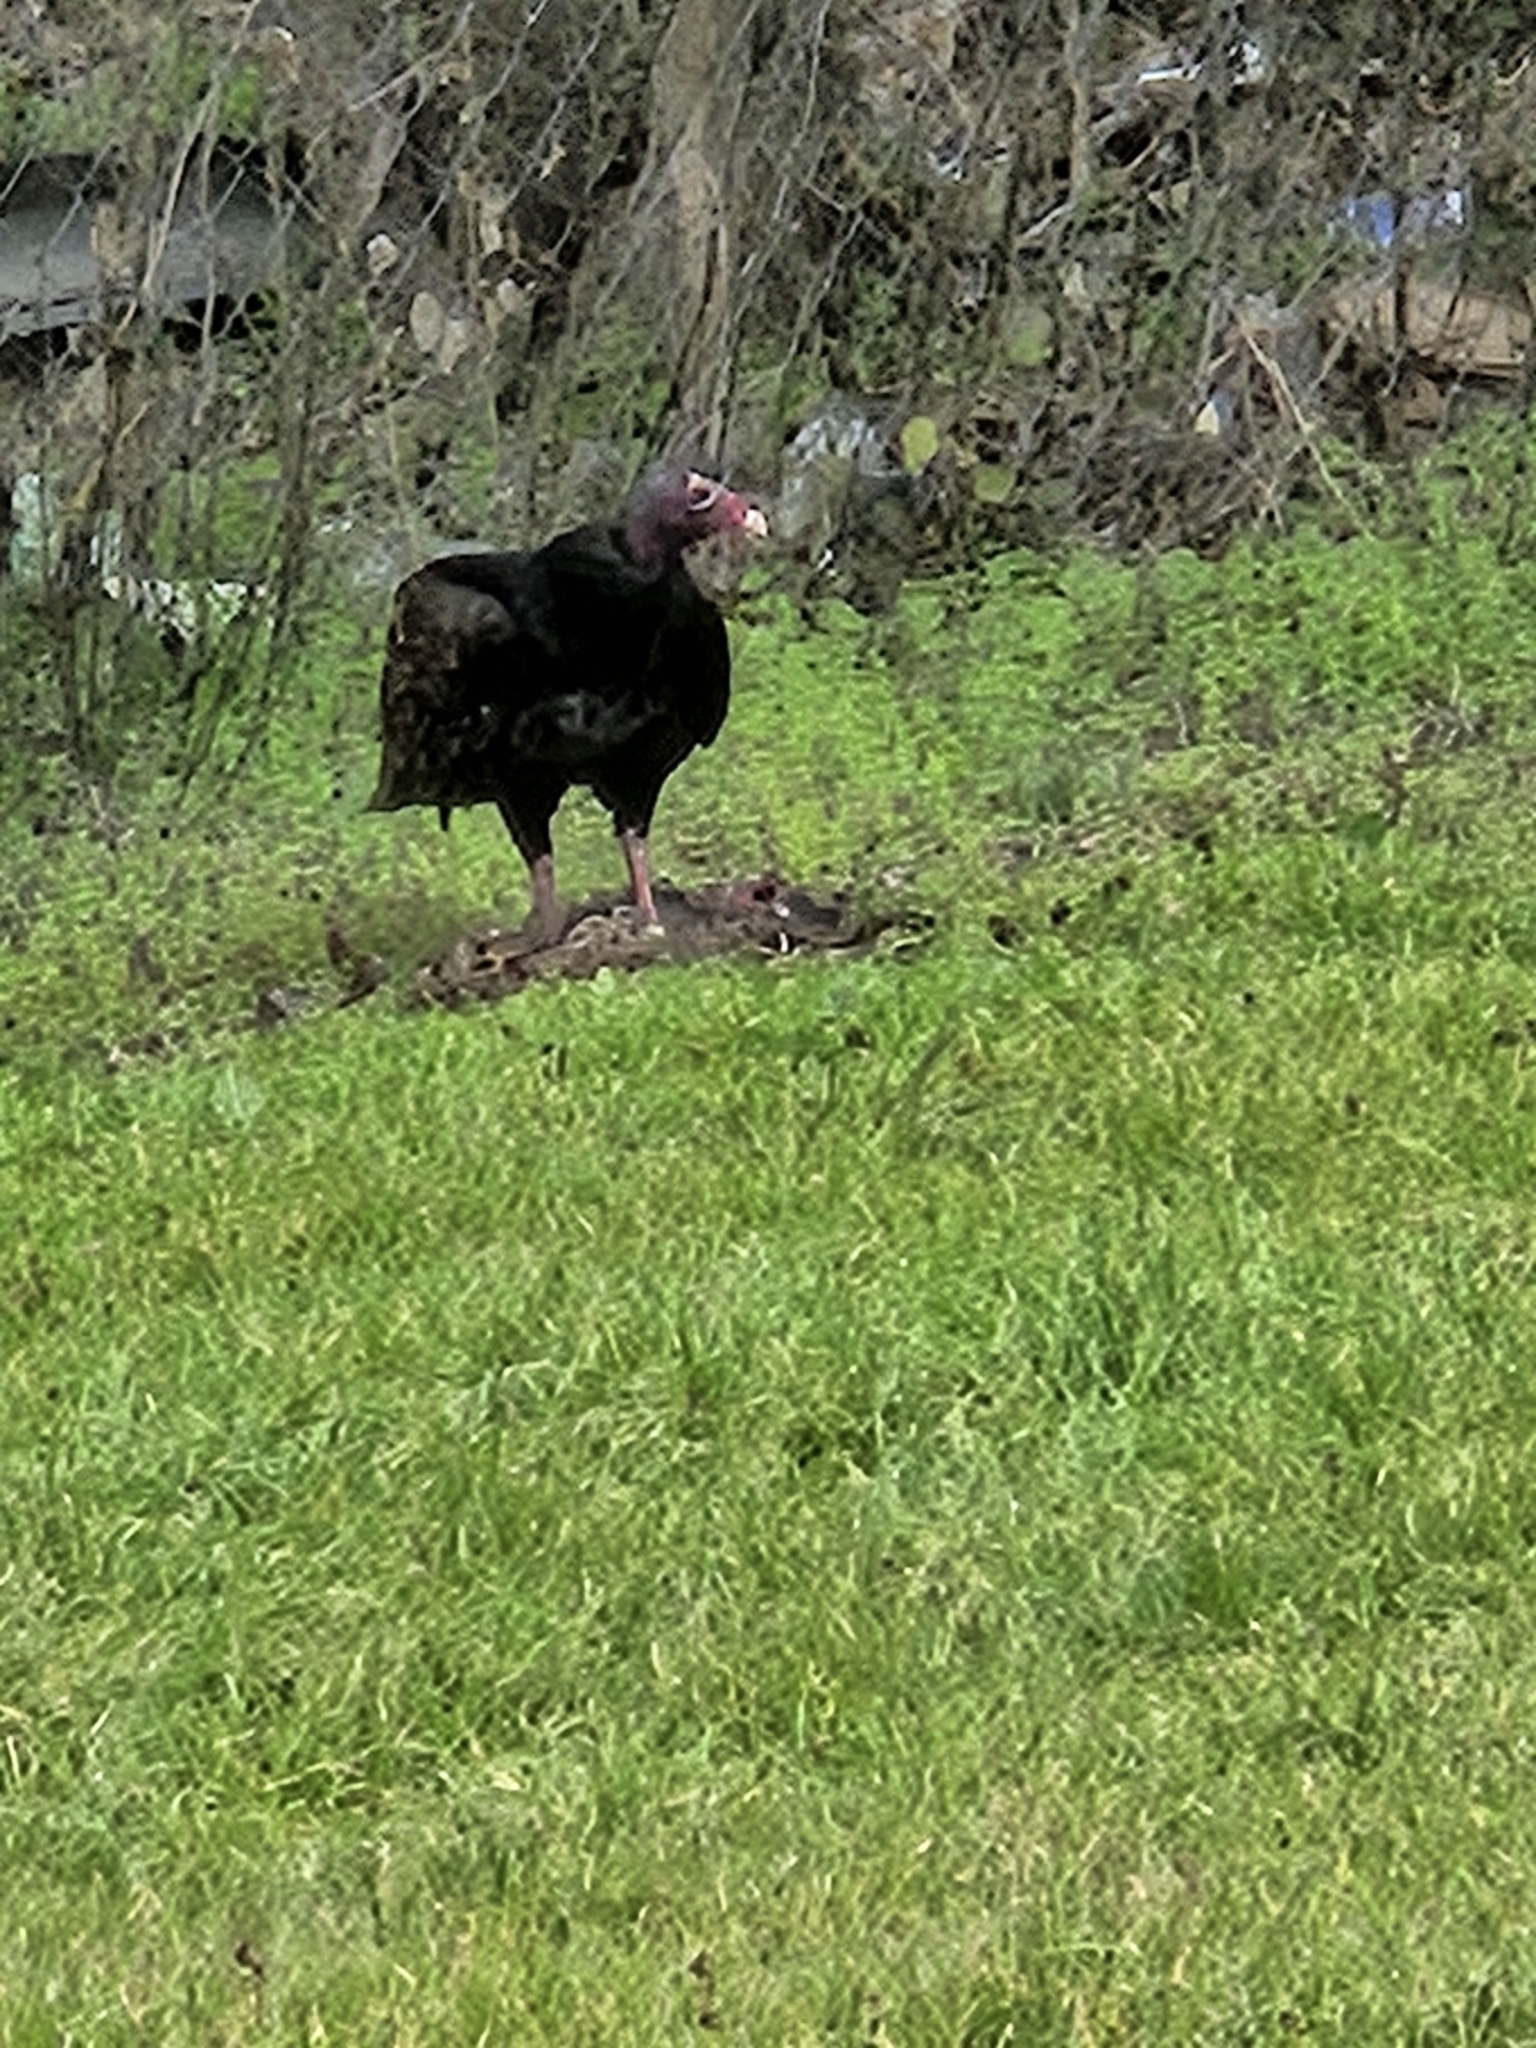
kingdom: Animalia
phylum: Chordata
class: Aves
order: Accipitriformes
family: Cathartidae
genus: Cathartes
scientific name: Cathartes aura
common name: Turkey vulture
